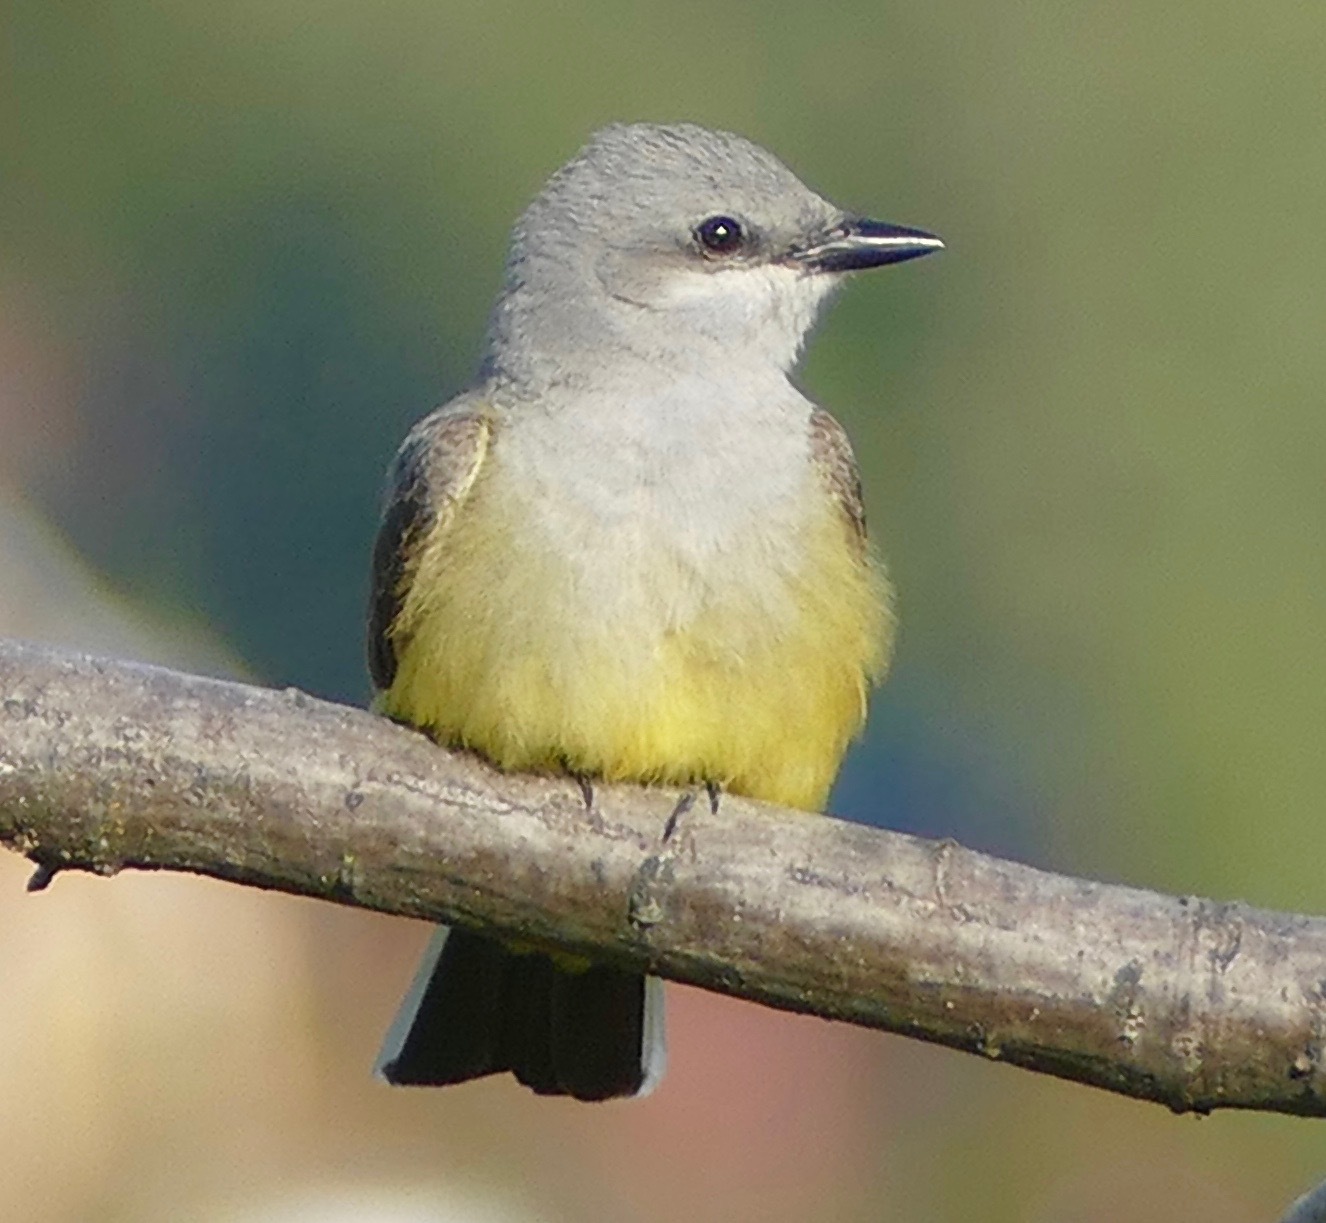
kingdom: Animalia
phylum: Chordata
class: Aves
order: Passeriformes
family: Tyrannidae
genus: Tyrannus
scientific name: Tyrannus verticalis
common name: Western kingbird
